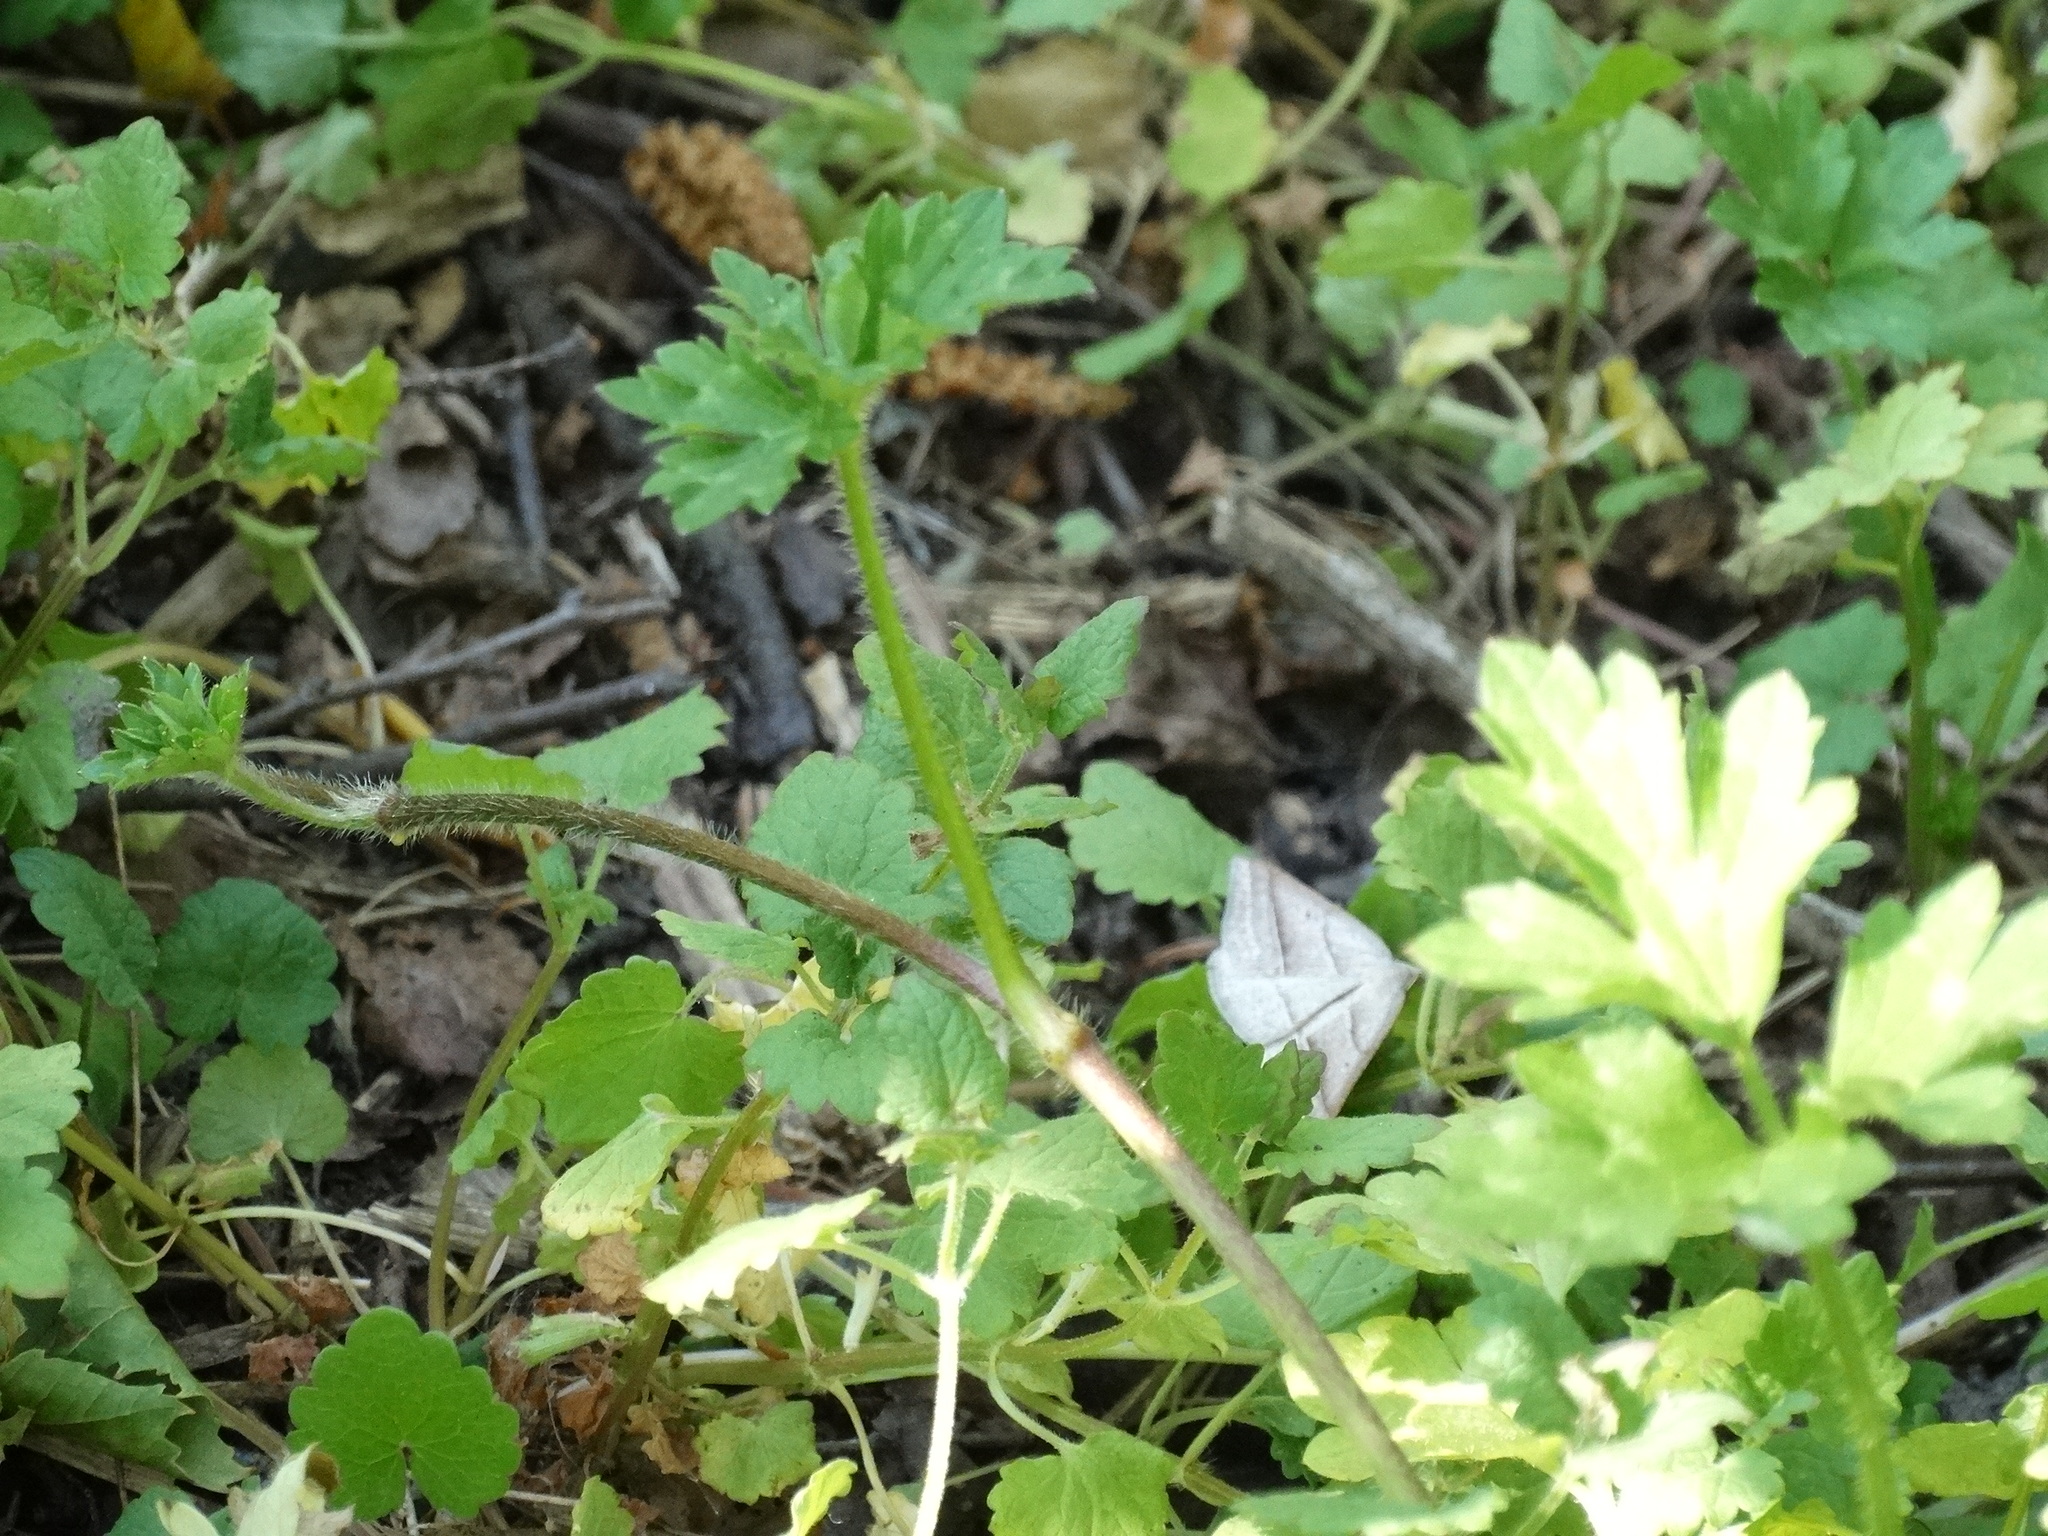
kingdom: Animalia
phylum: Arthropoda
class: Insecta
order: Lepidoptera
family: Pterophoridae
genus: Pterophorus
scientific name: Pterophorus Petrophora chlorosata
